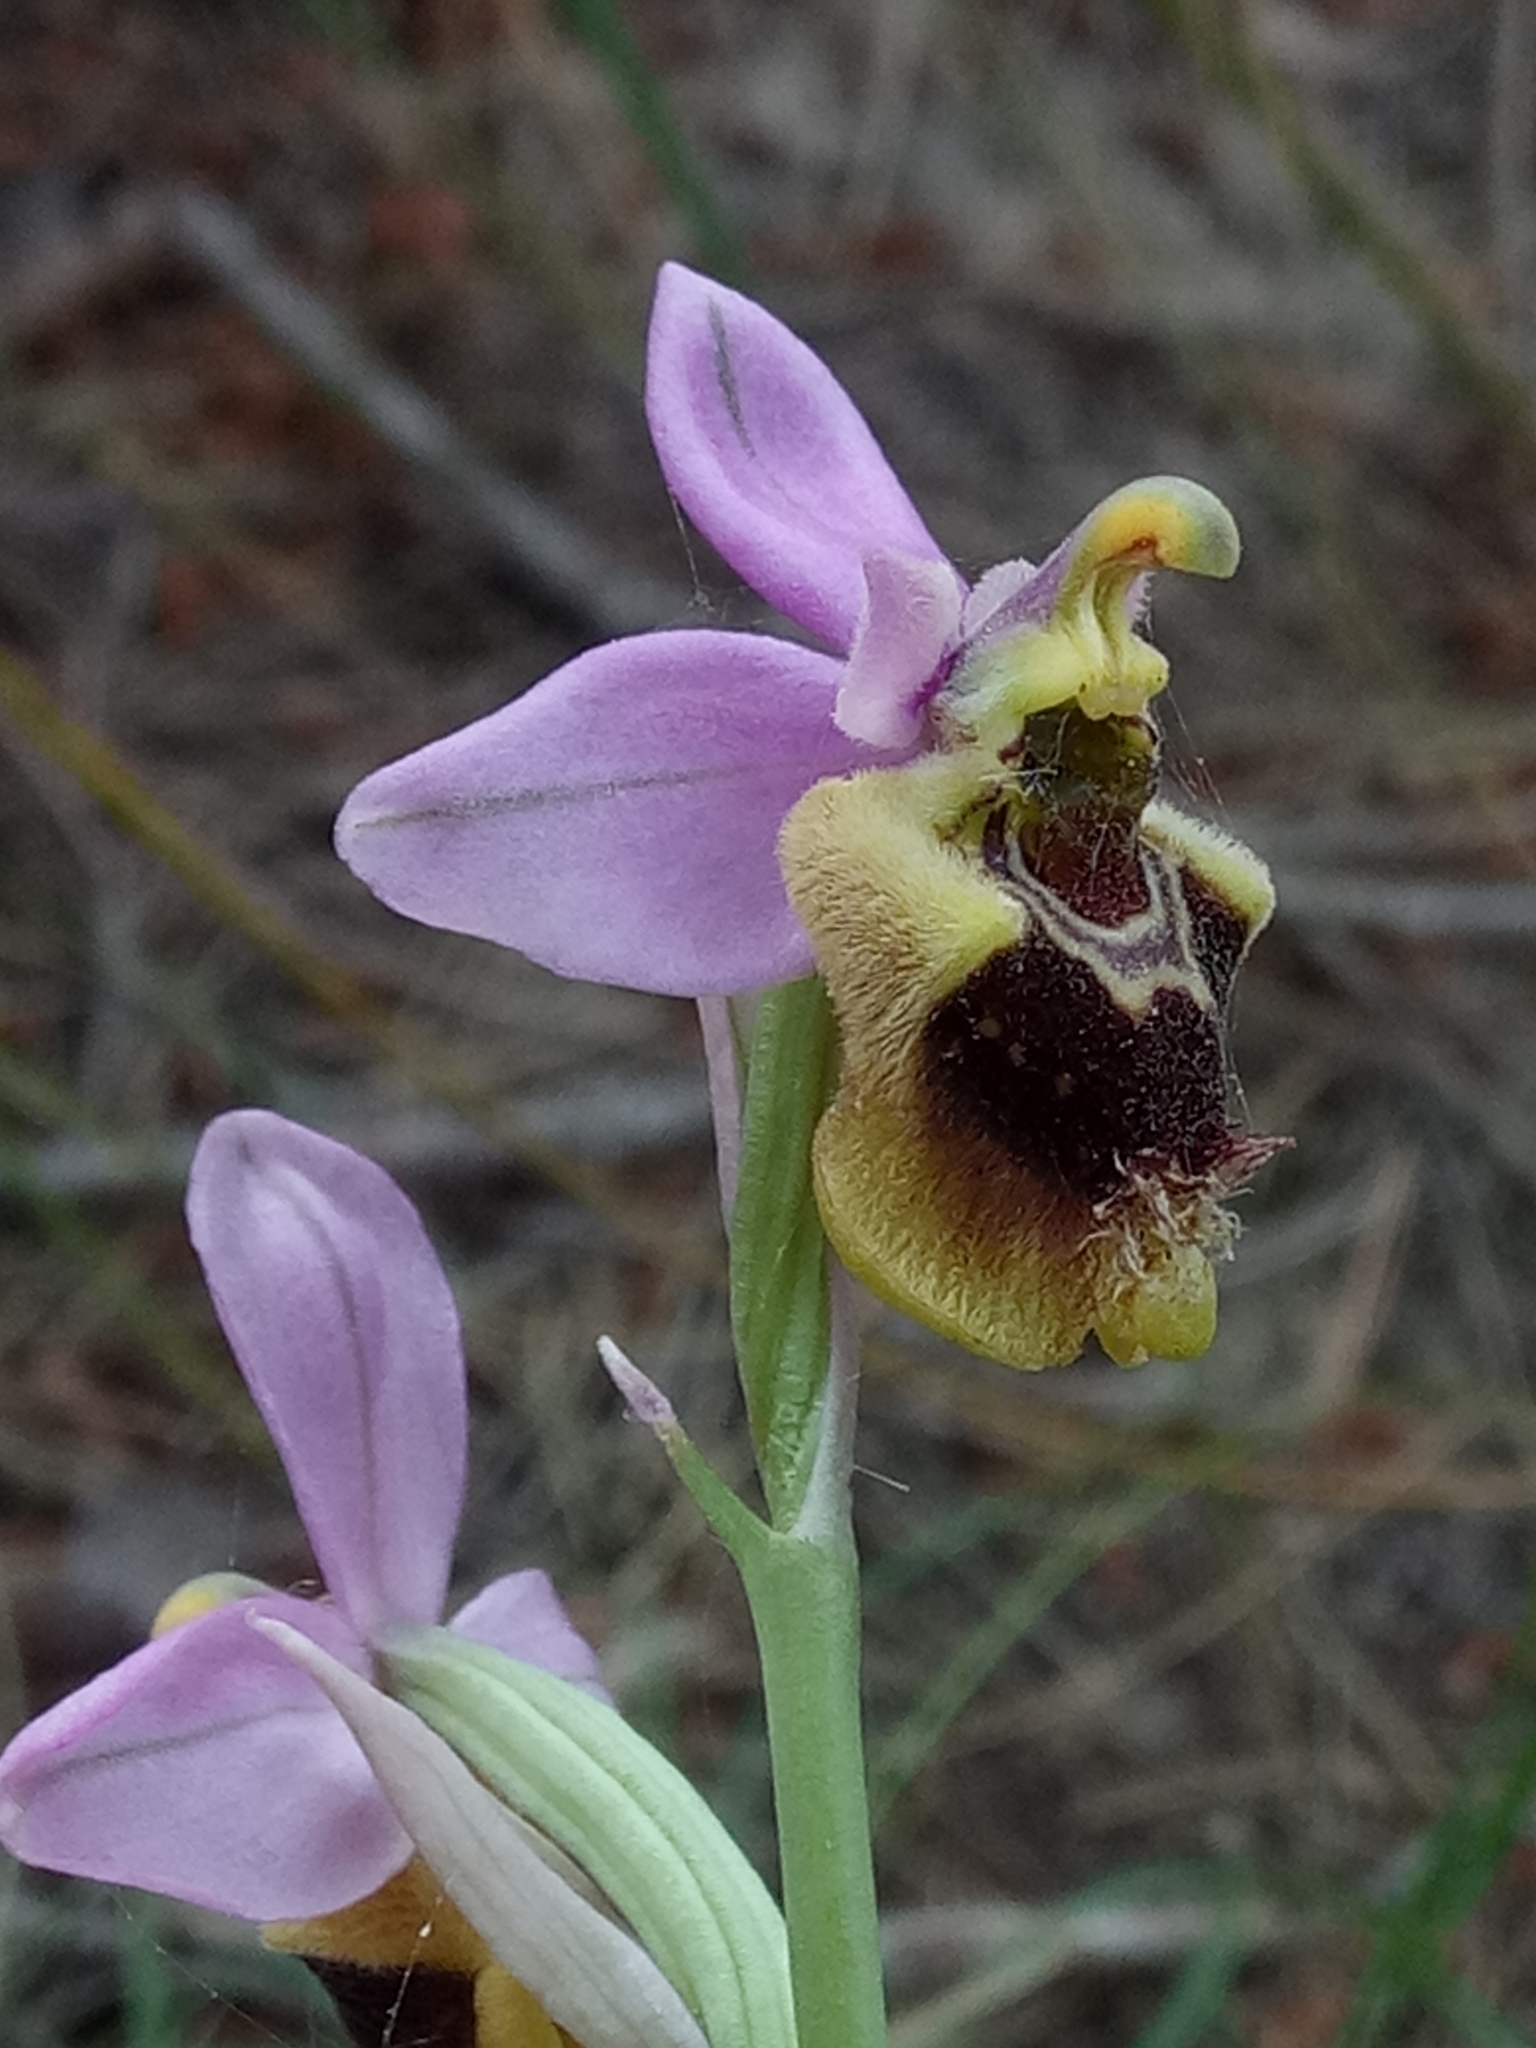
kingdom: Plantae
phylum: Tracheophyta
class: Liliopsida
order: Asparagales
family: Orchidaceae
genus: Ophrys
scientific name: Ophrys tenthredinifera
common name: Sawfly orchid
